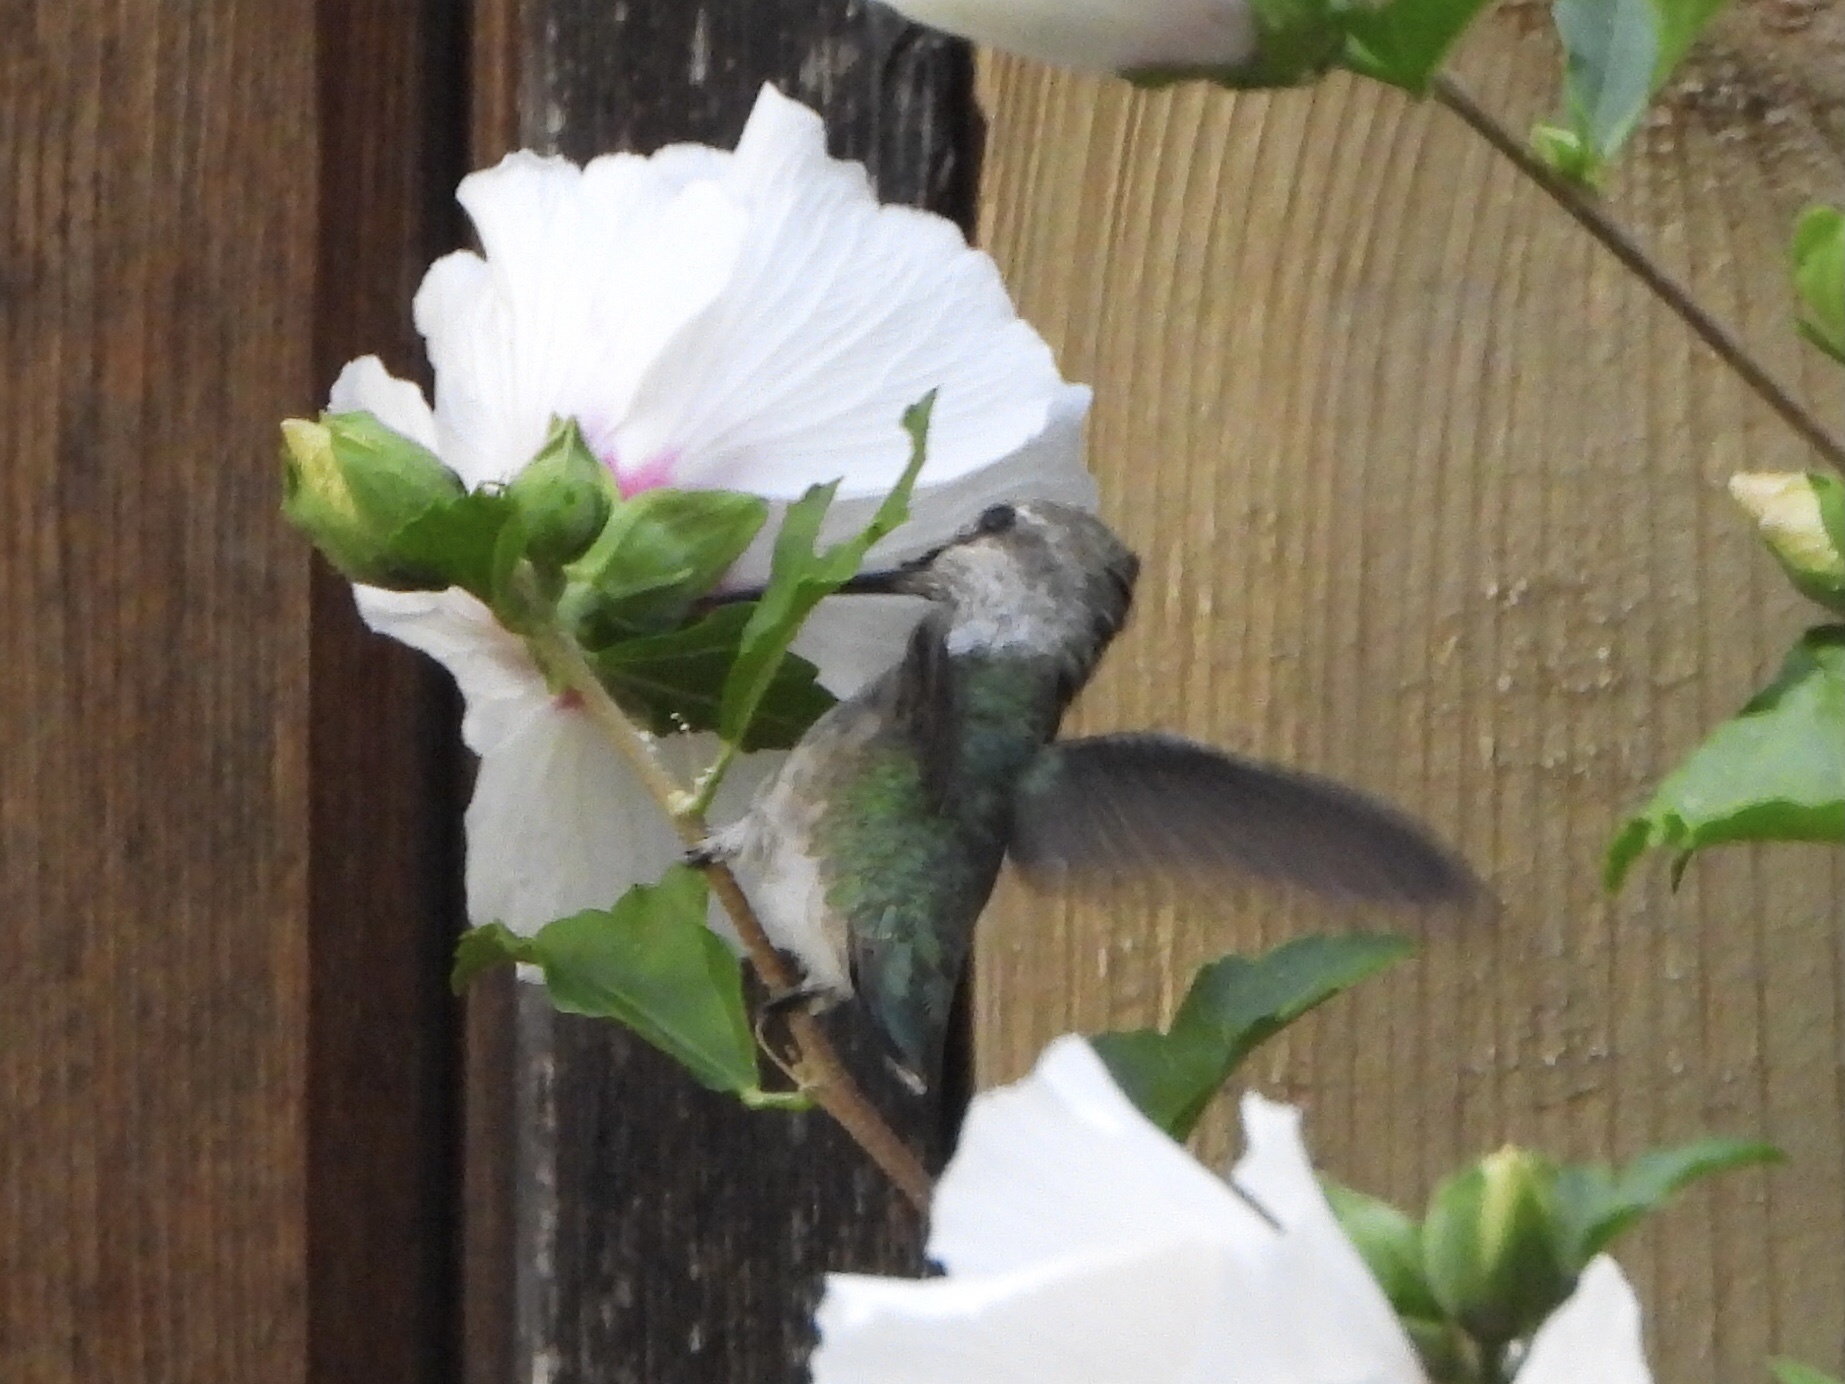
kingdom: Animalia
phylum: Chordata
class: Aves
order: Apodiformes
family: Trochilidae
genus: Calypte
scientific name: Calypte anna
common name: Anna's hummingbird
